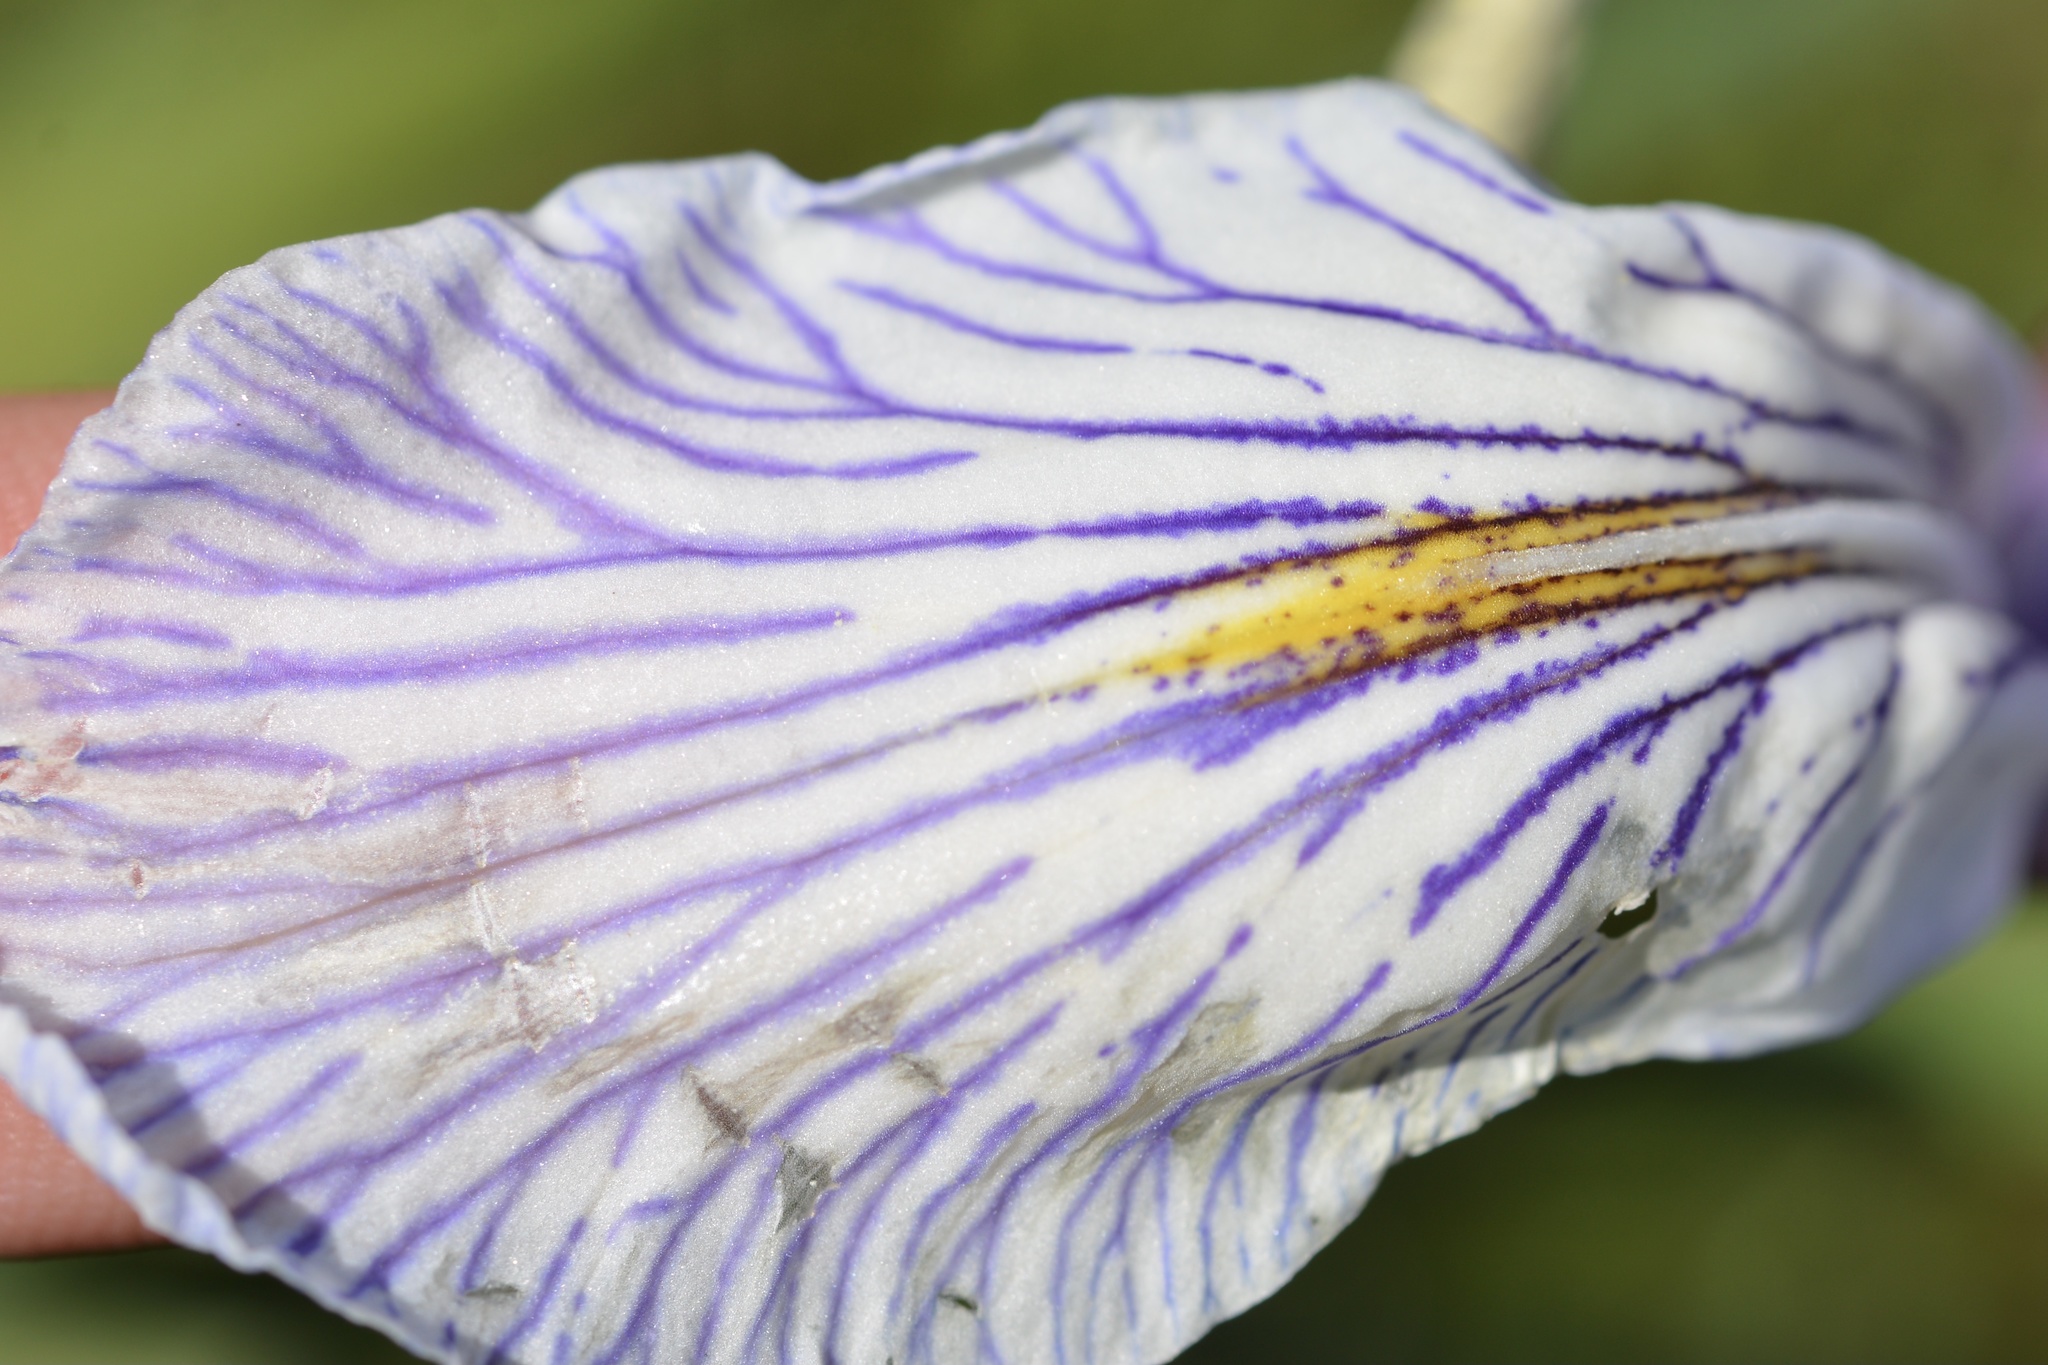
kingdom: Plantae
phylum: Tracheophyta
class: Liliopsida
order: Asparagales
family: Iridaceae
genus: Iris
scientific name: Iris longipetala
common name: Long-petal iris
